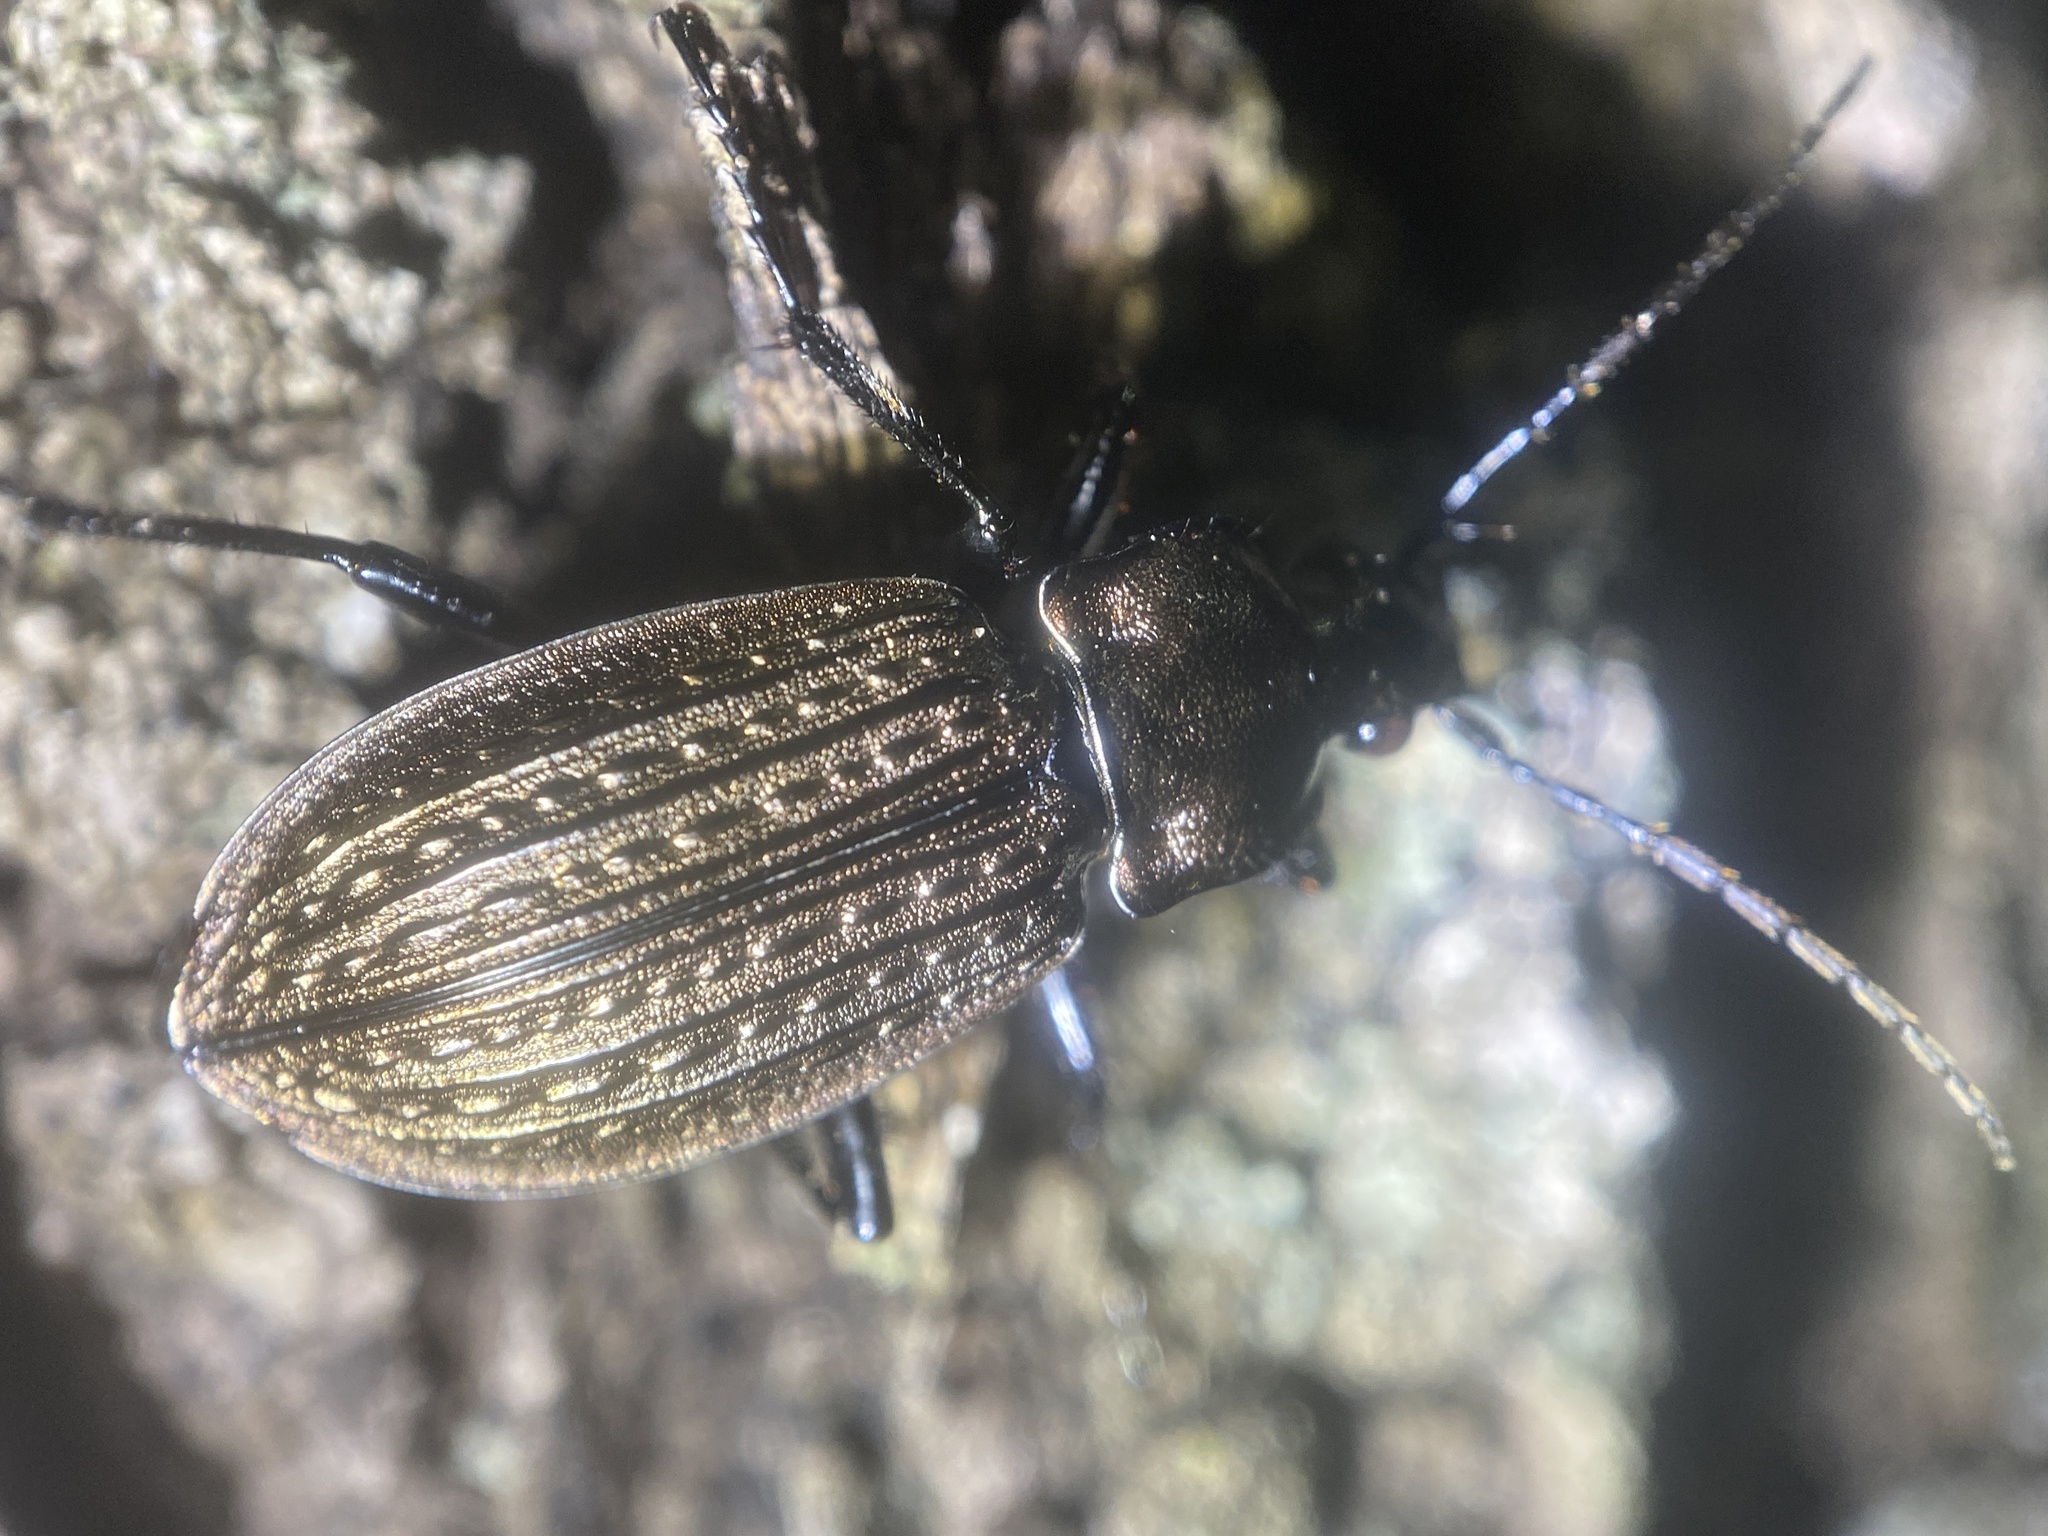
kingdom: Animalia
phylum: Arthropoda
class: Insecta
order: Coleoptera
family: Carabidae
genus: Carabus
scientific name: Carabus granulatus
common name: Granulate ground beetle
